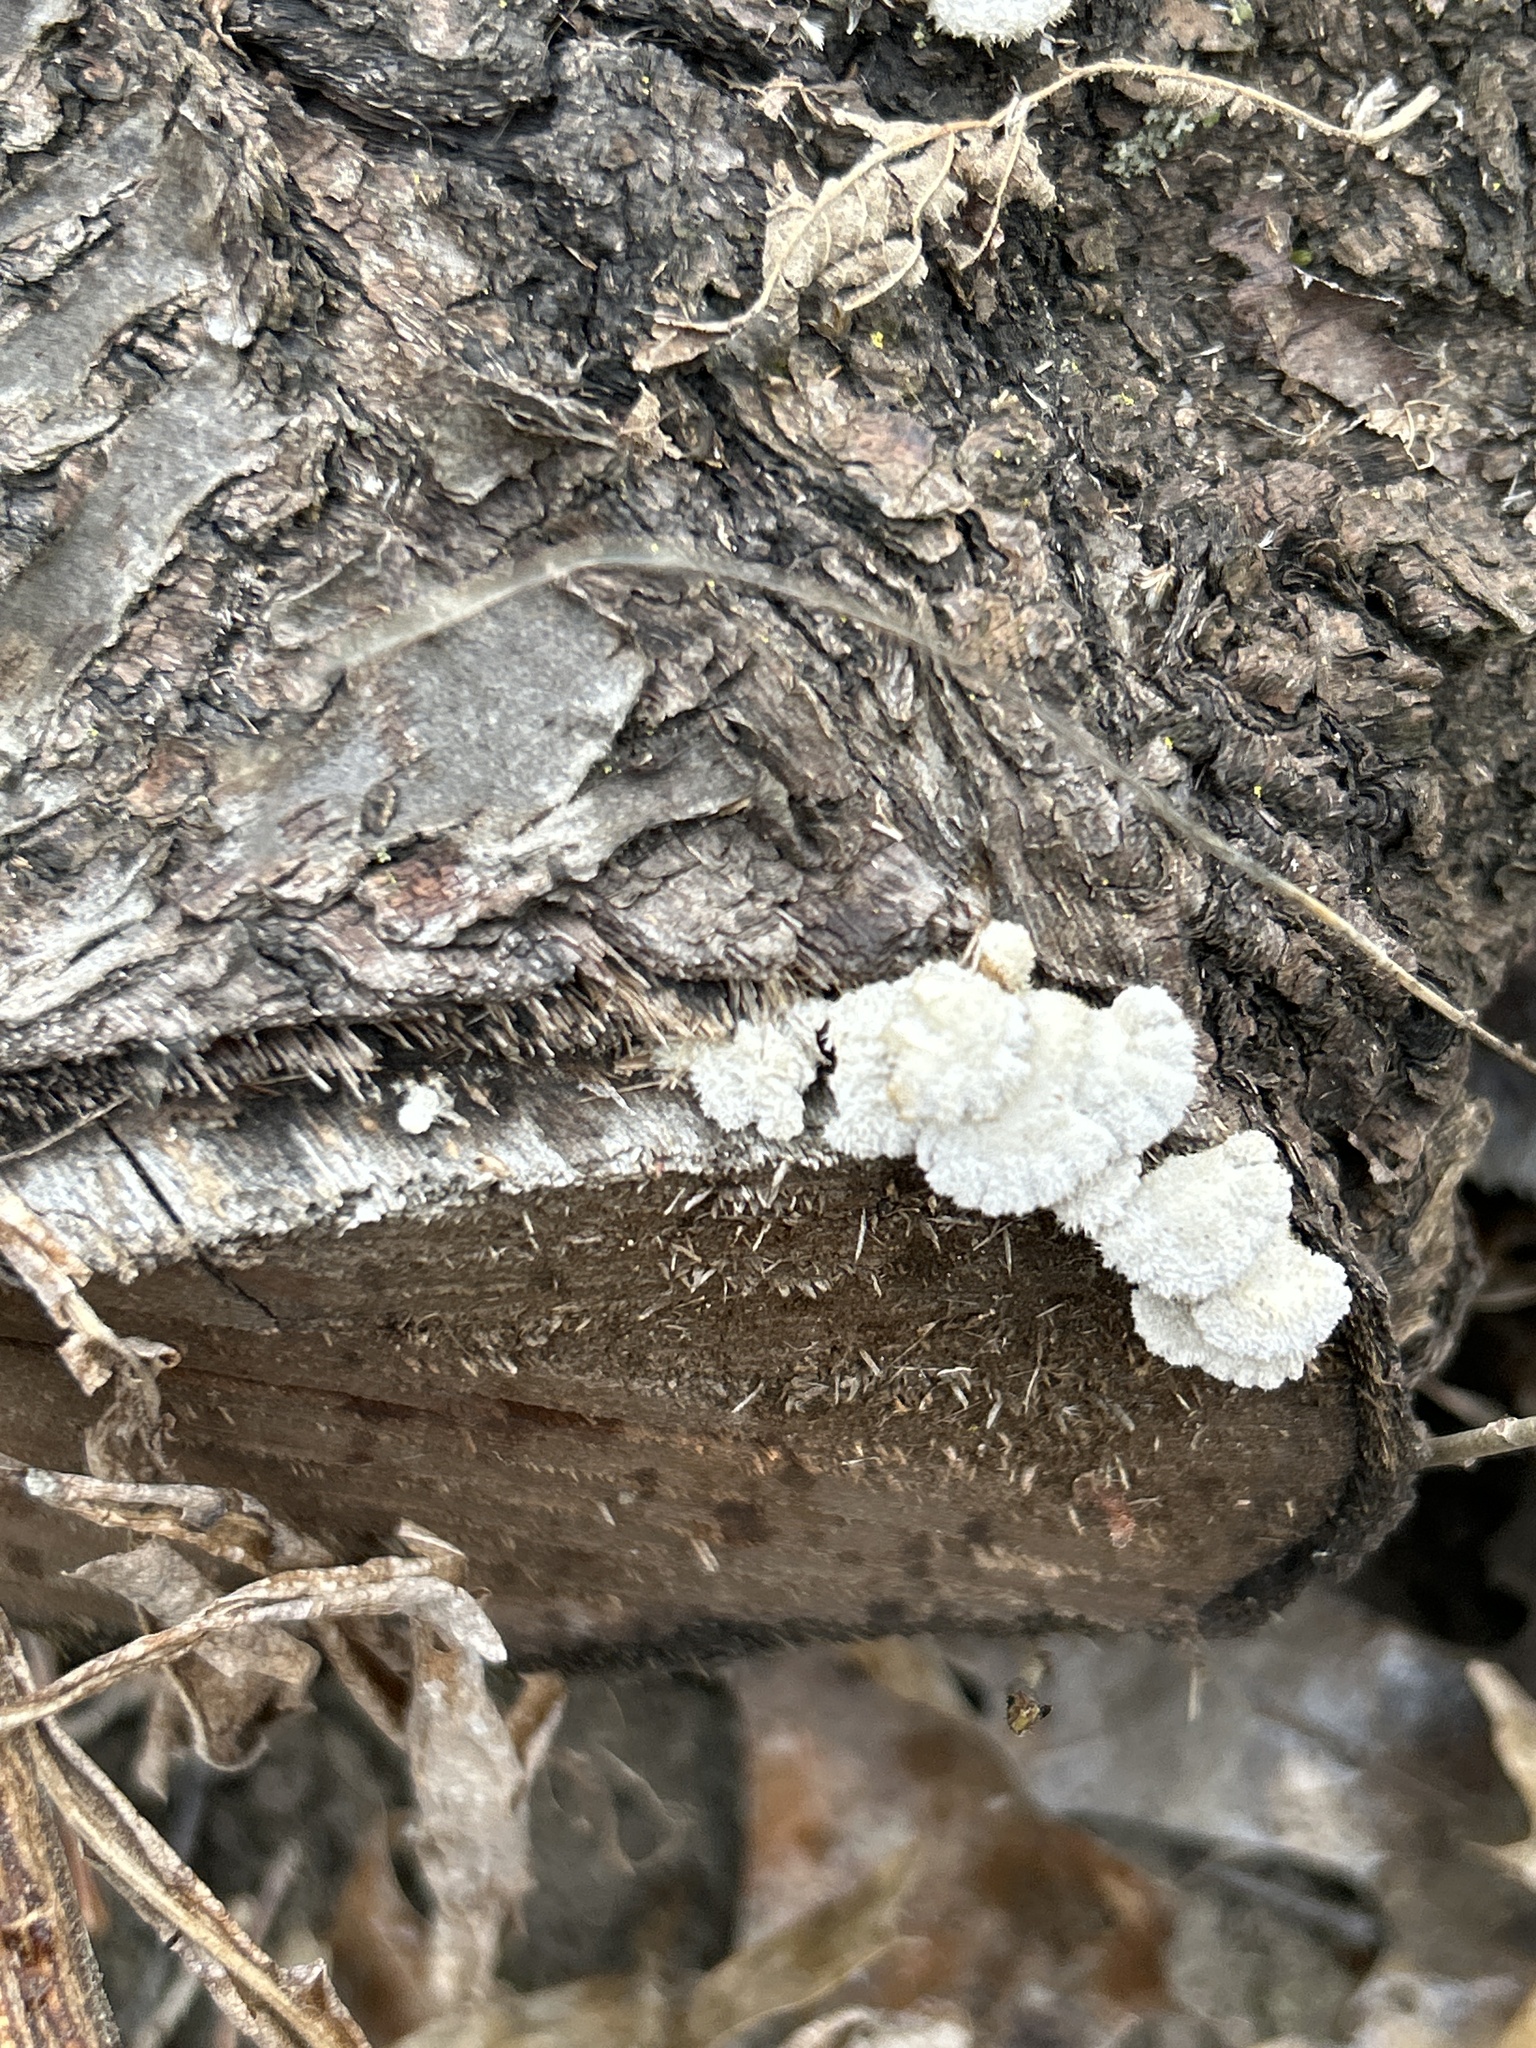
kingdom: Fungi
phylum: Basidiomycota
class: Agaricomycetes
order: Agaricales
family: Schizophyllaceae
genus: Schizophyllum
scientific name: Schizophyllum commune
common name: Common porecrust
